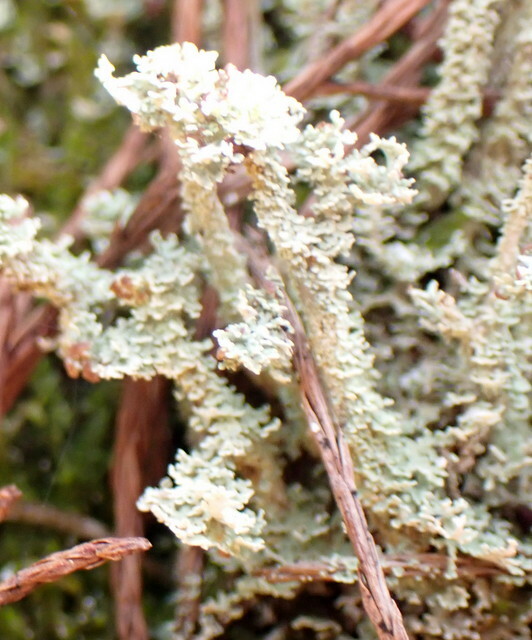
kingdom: Fungi
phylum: Ascomycota
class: Lecanoromycetes
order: Lecanorales
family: Cladoniaceae
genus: Cladonia
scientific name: Cladonia beaumontii
